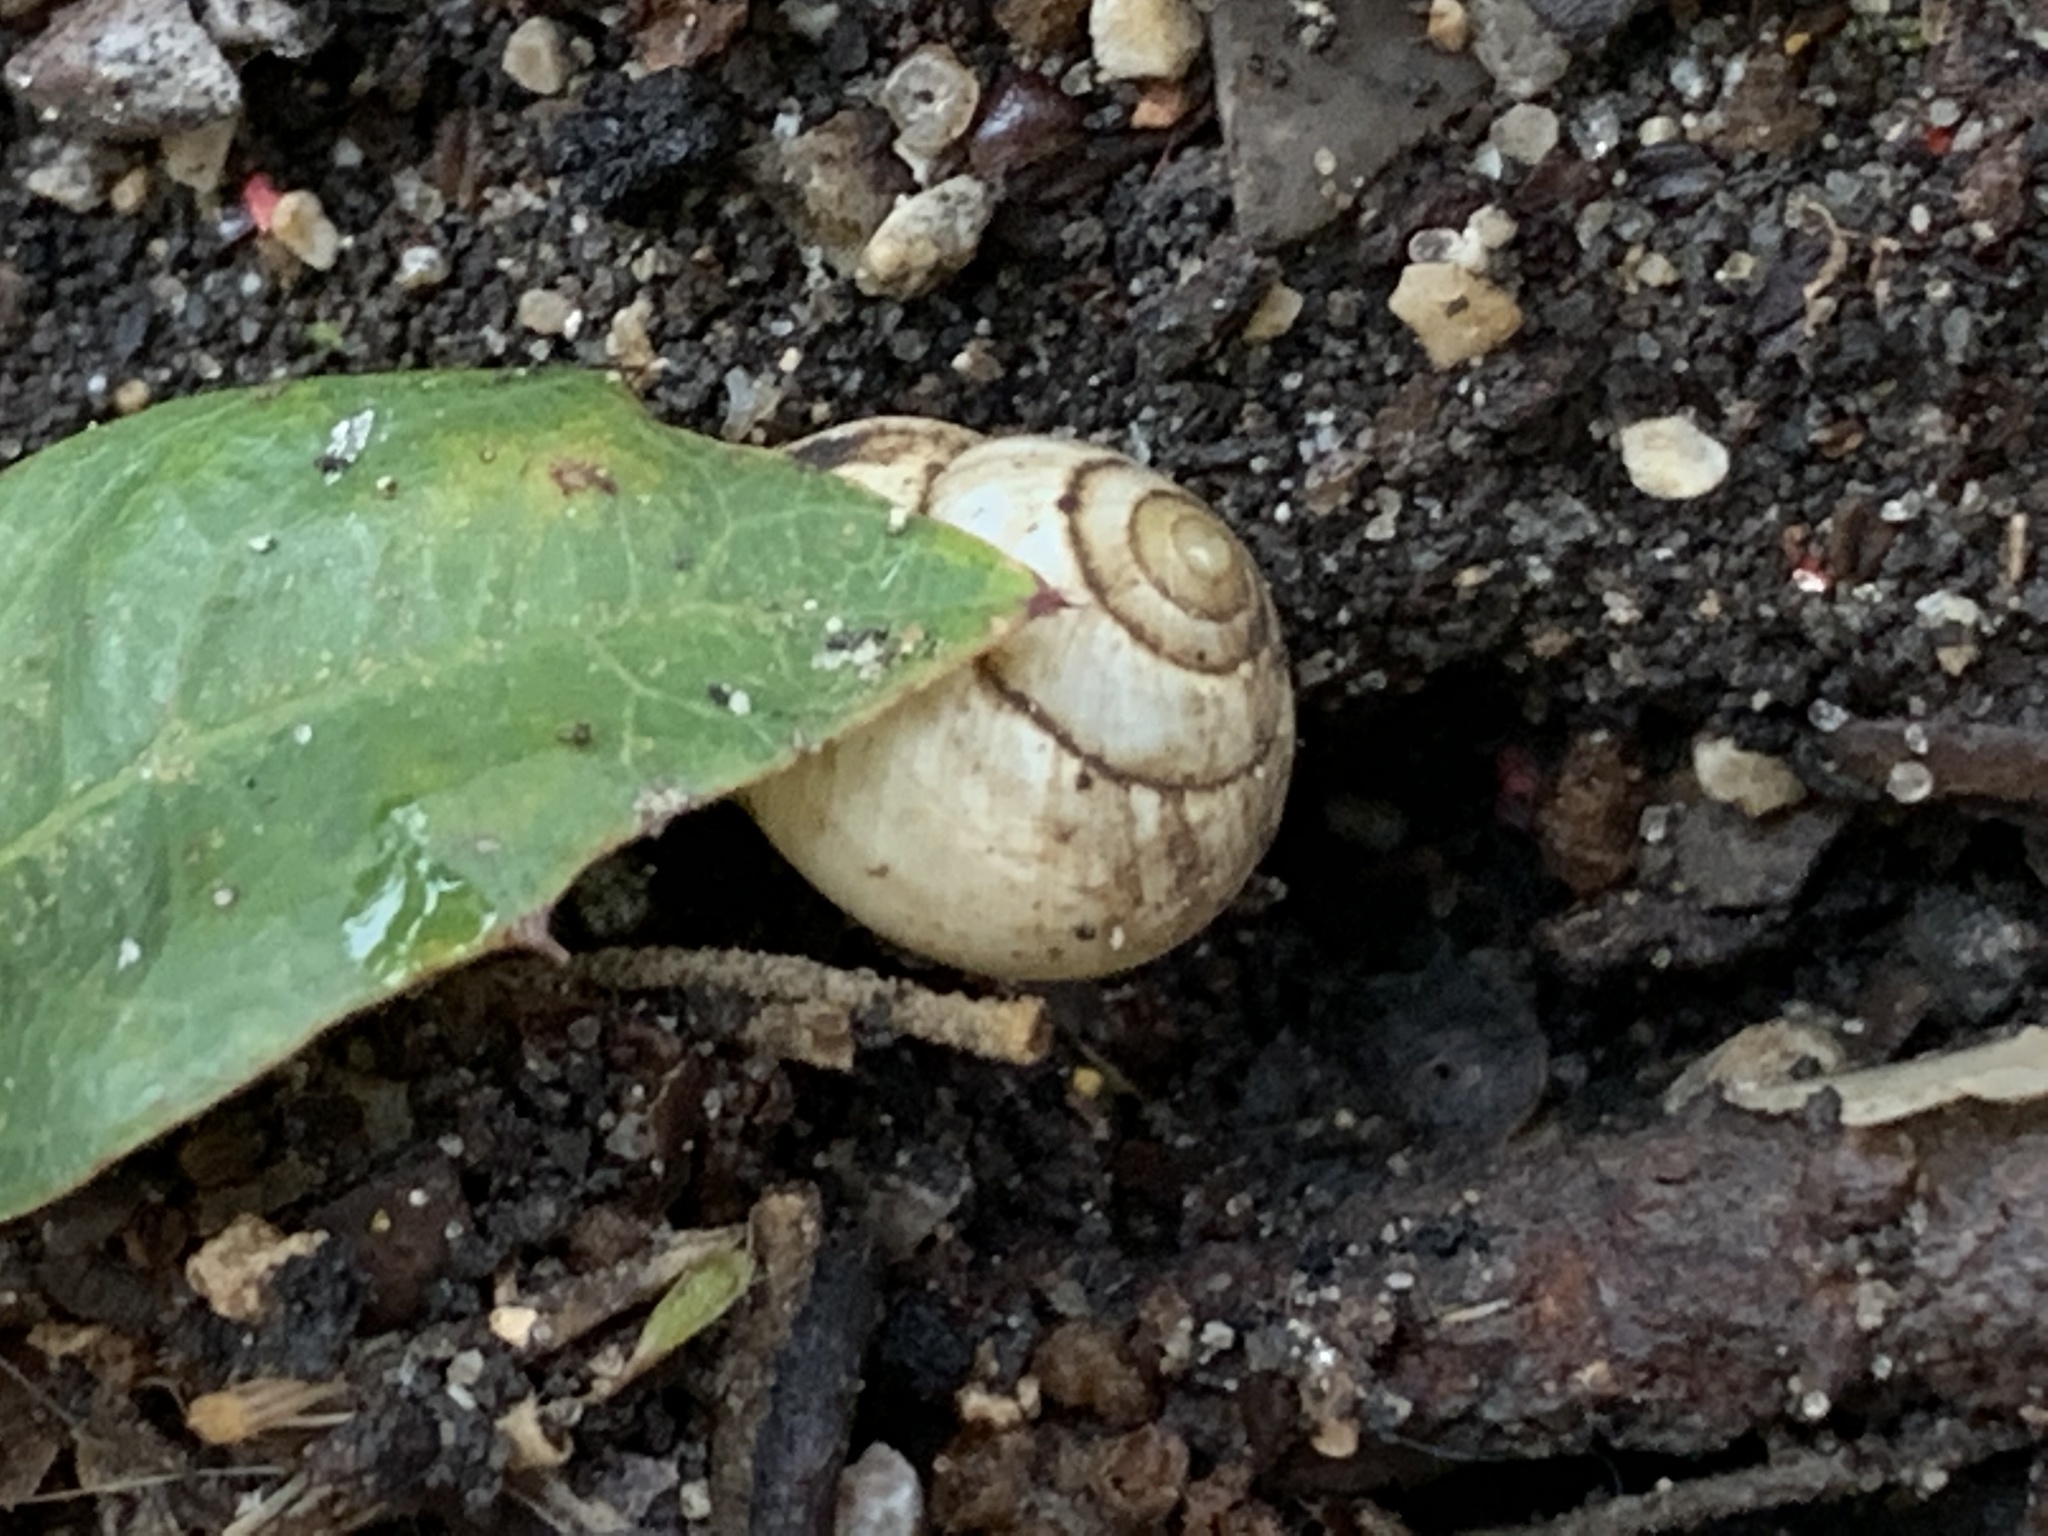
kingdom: Animalia
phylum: Mollusca
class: Gastropoda
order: Cycloneritida
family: Helicinidae
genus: Helicina
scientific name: Helicina orbiculata
